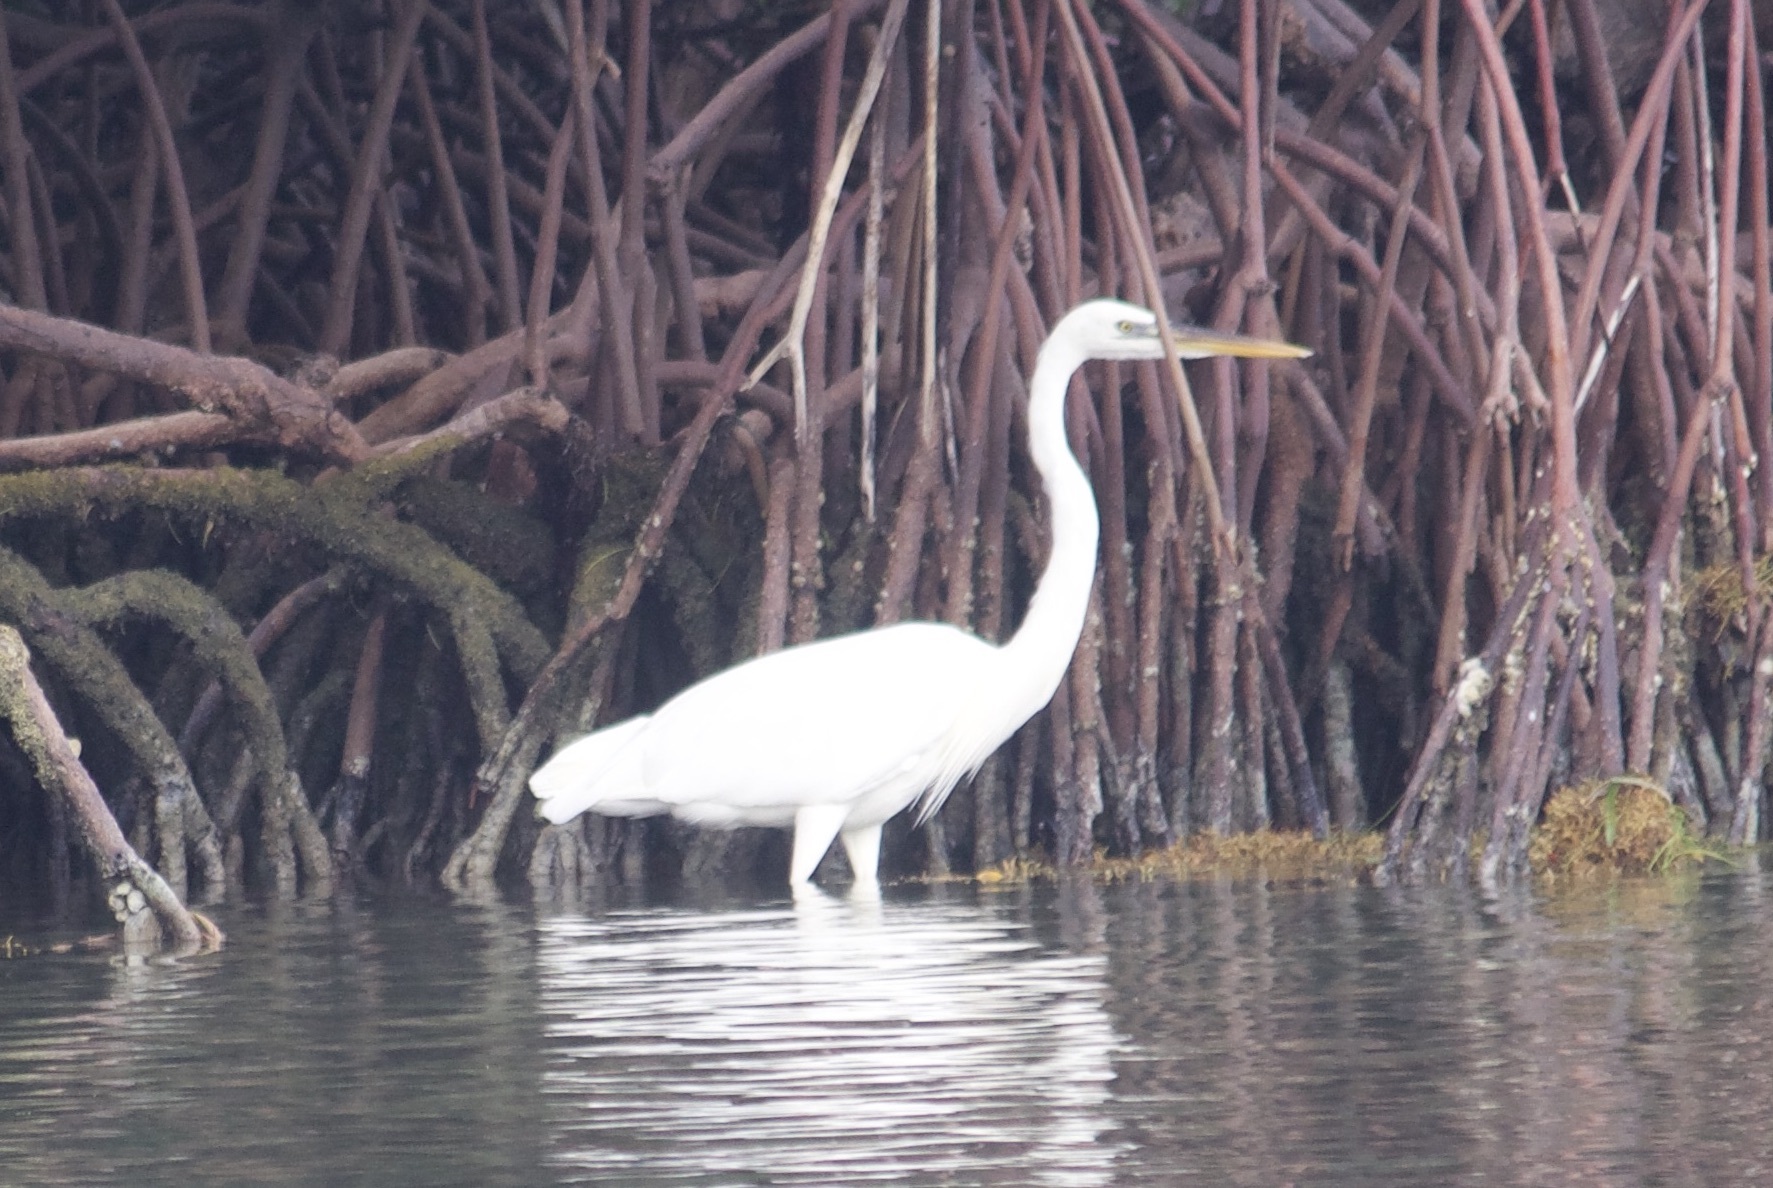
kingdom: Animalia
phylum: Chordata
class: Aves
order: Pelecaniformes
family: Ardeidae
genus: Ardea
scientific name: Ardea herodias
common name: Great blue heron
